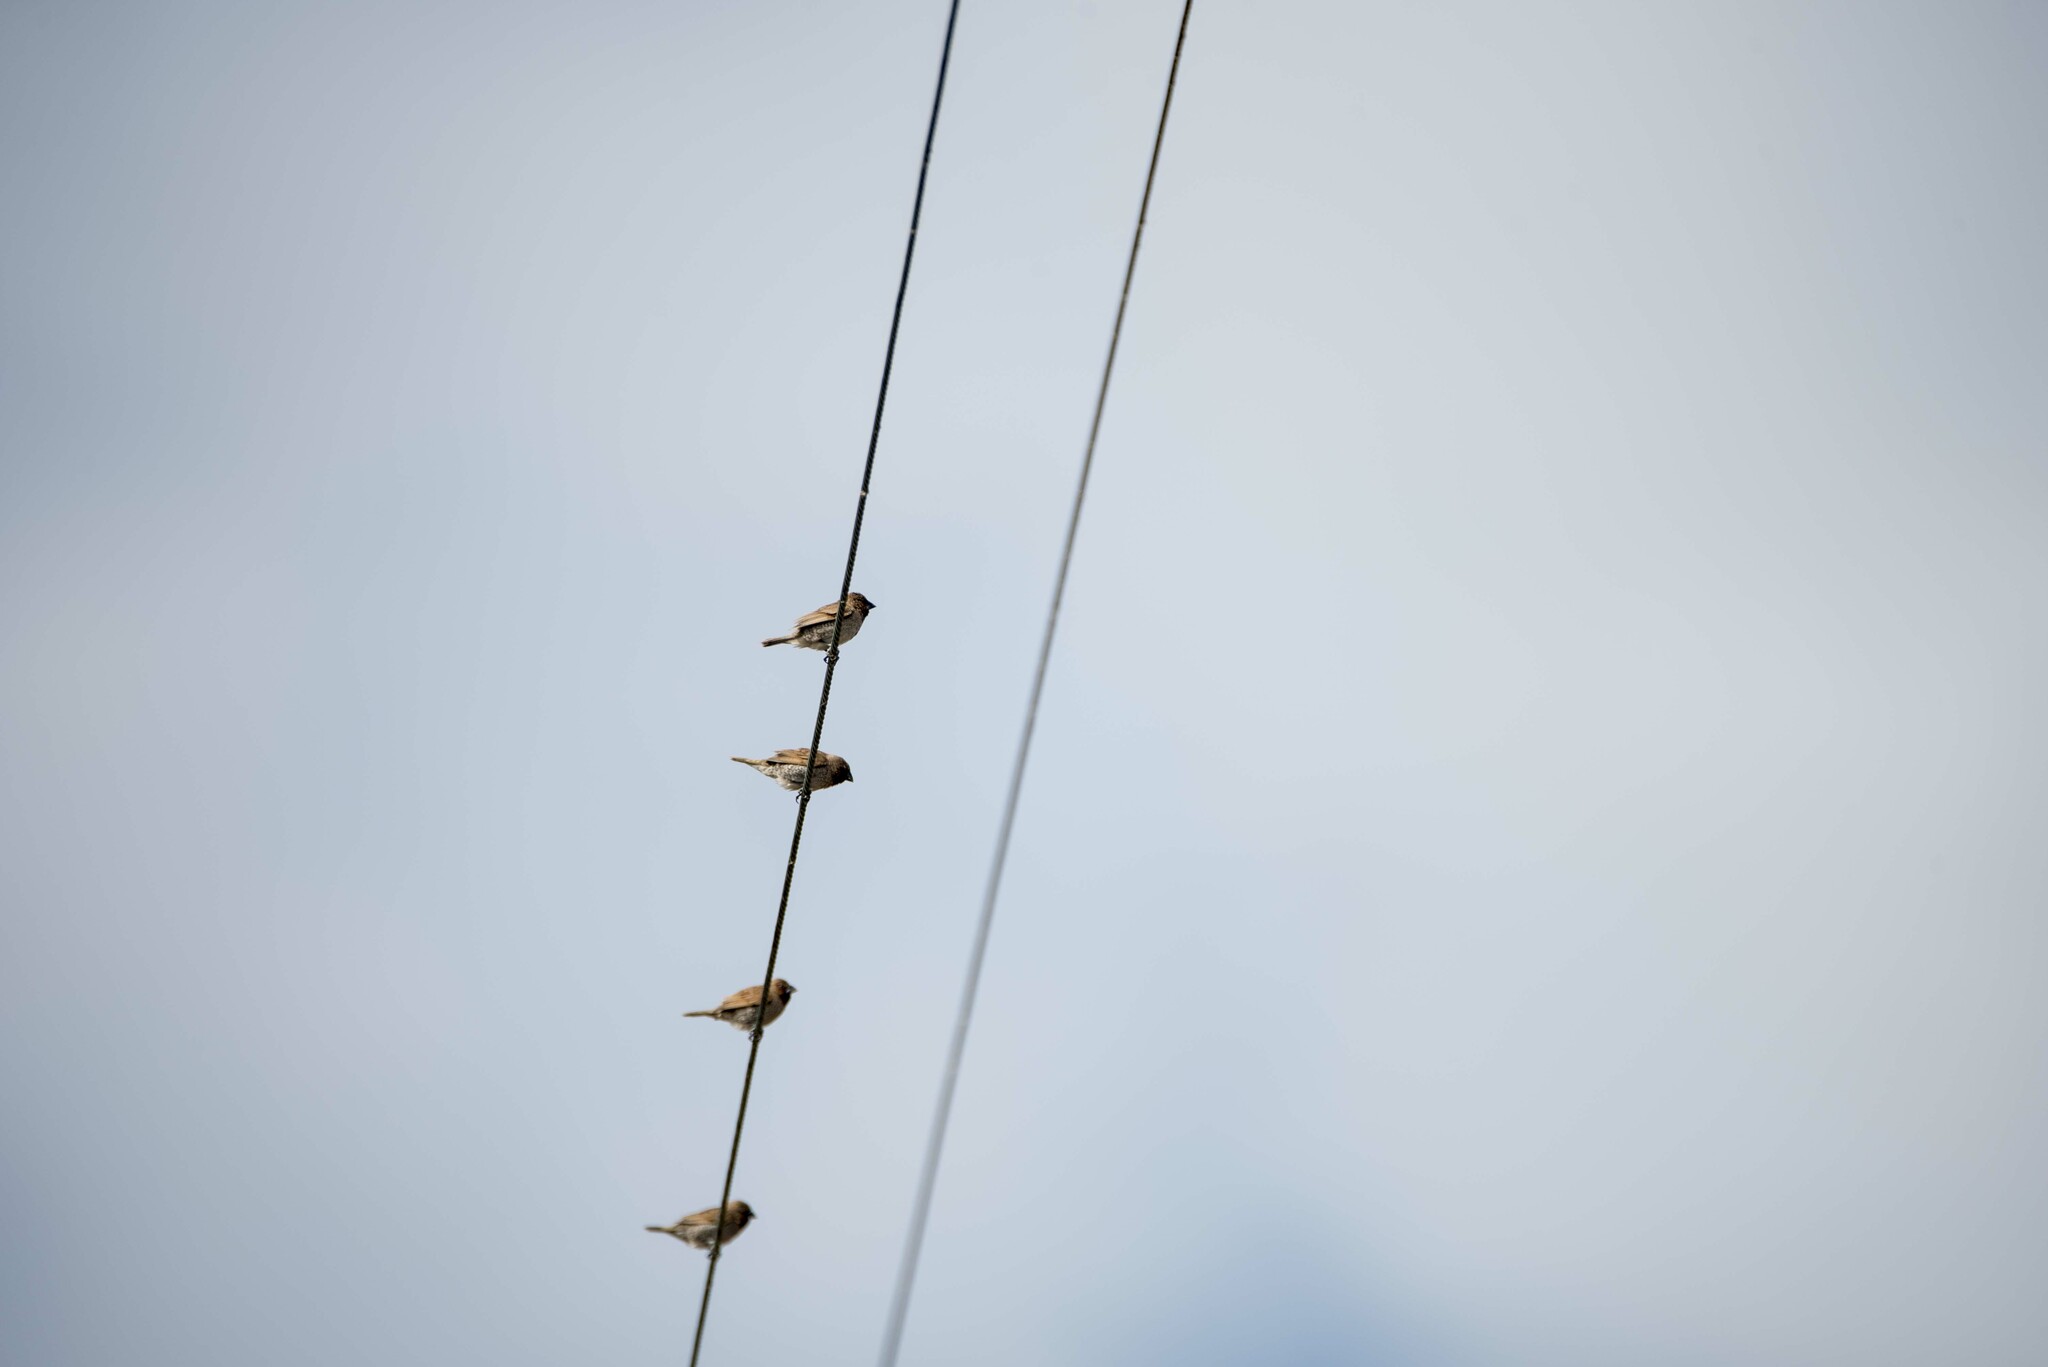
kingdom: Animalia
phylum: Chordata
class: Aves
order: Passeriformes
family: Estrildidae
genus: Lonchura
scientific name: Lonchura punctulata
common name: Scaly-breasted munia
